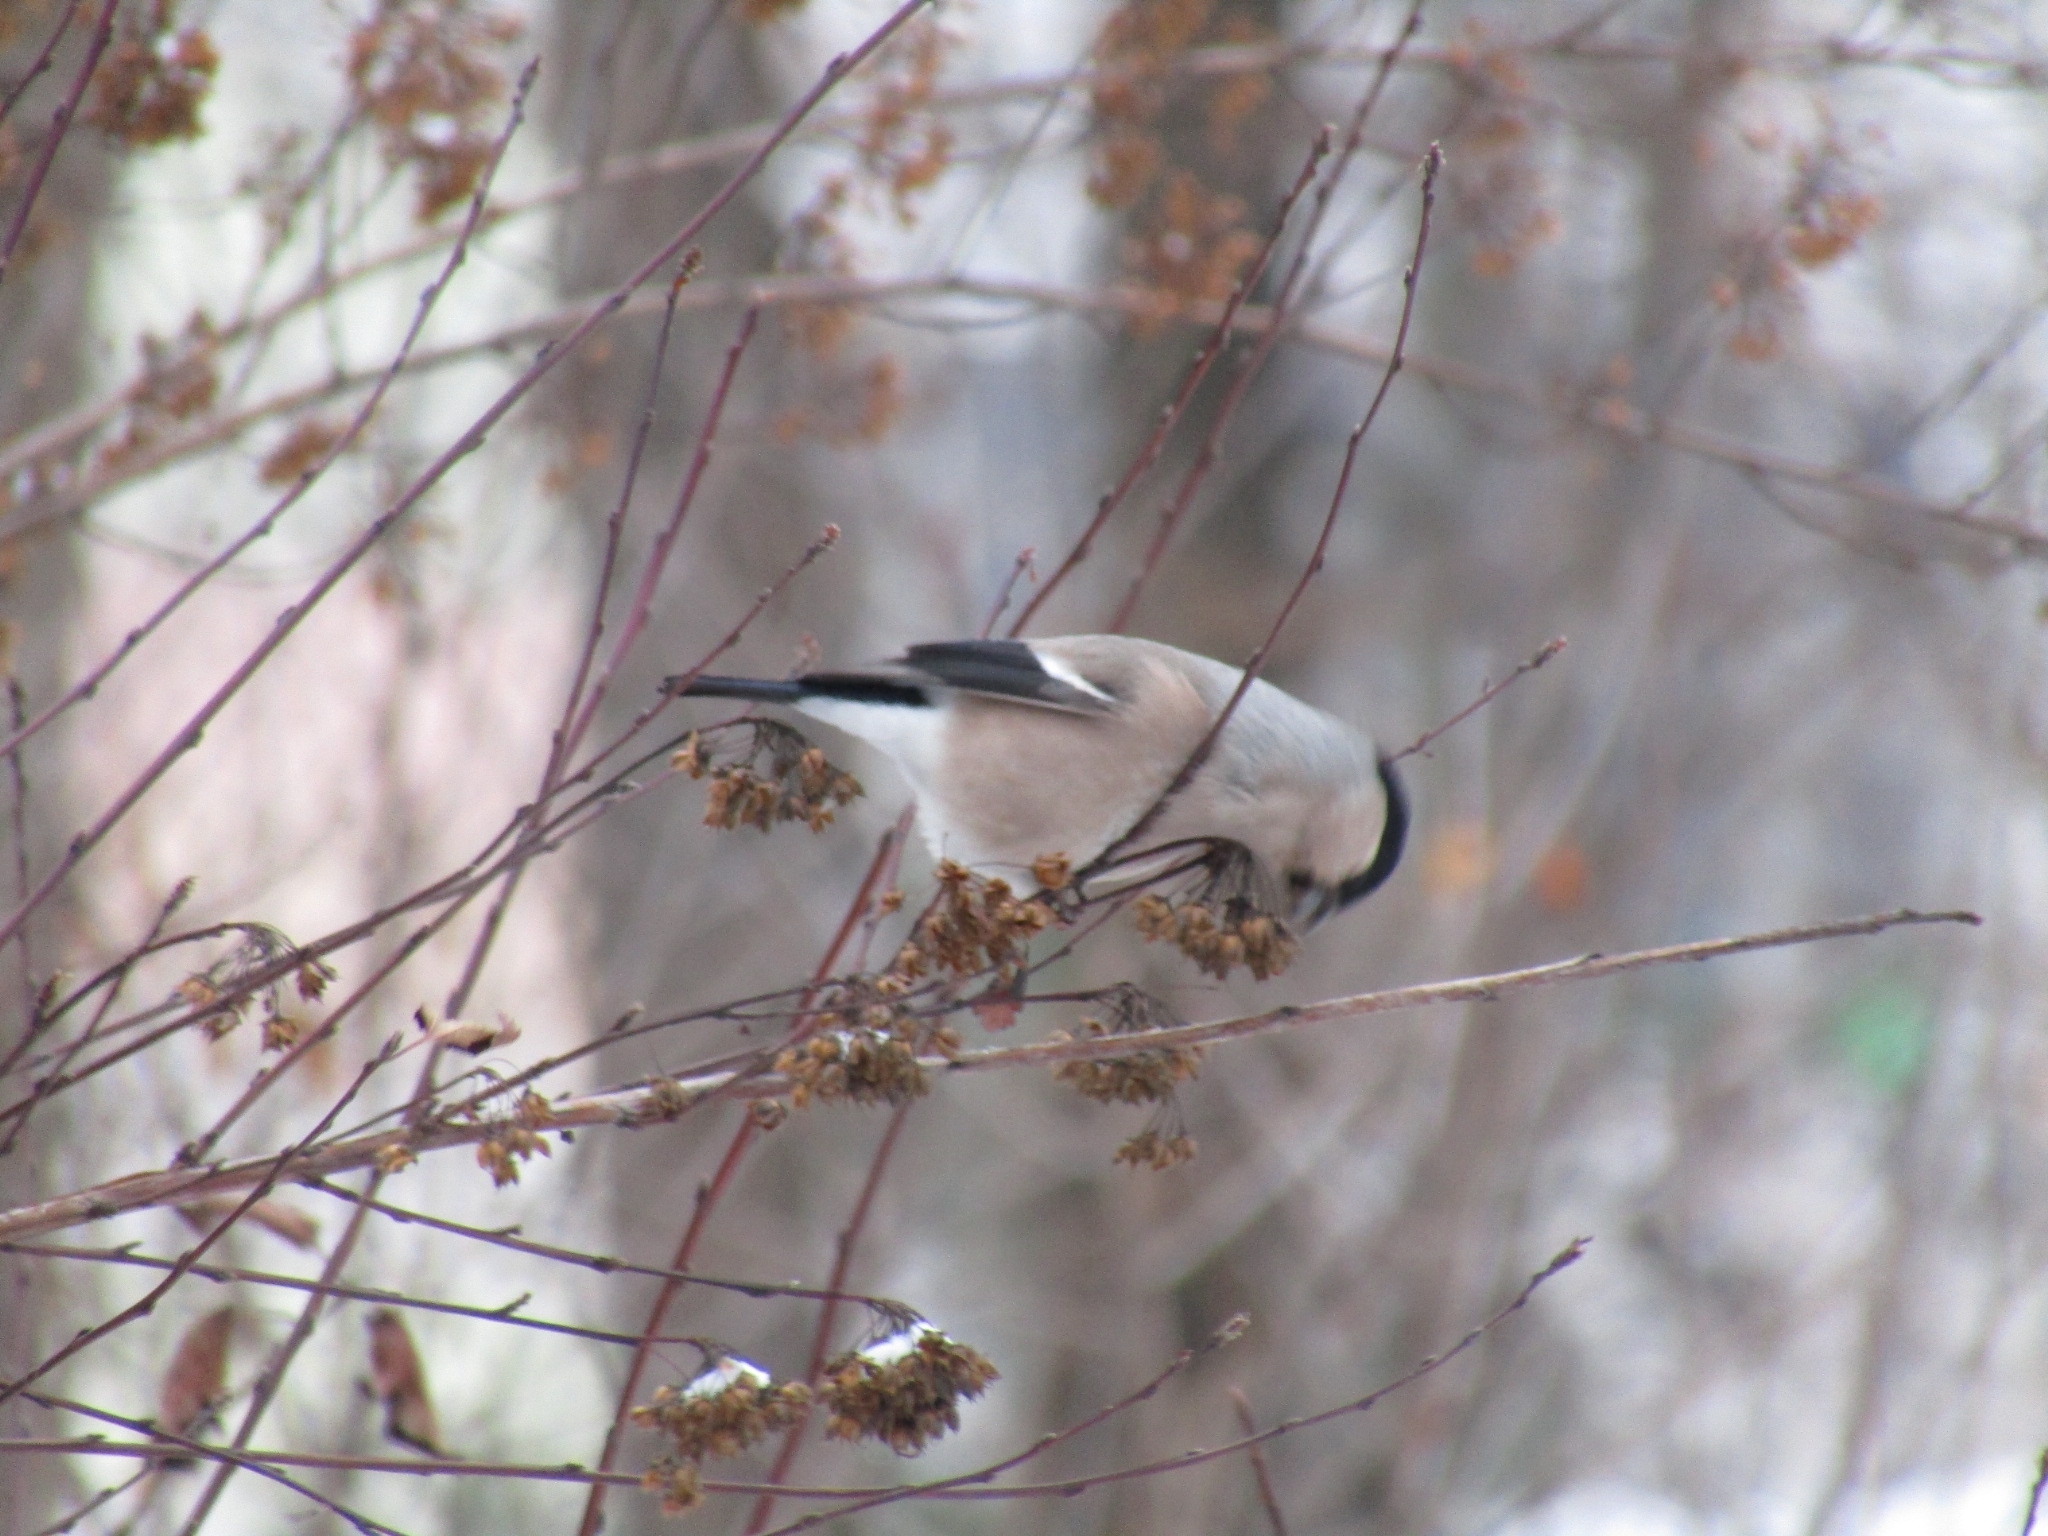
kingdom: Animalia
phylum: Chordata
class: Aves
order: Passeriformes
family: Fringillidae
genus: Pyrrhula
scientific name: Pyrrhula pyrrhula
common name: Eurasian bullfinch
